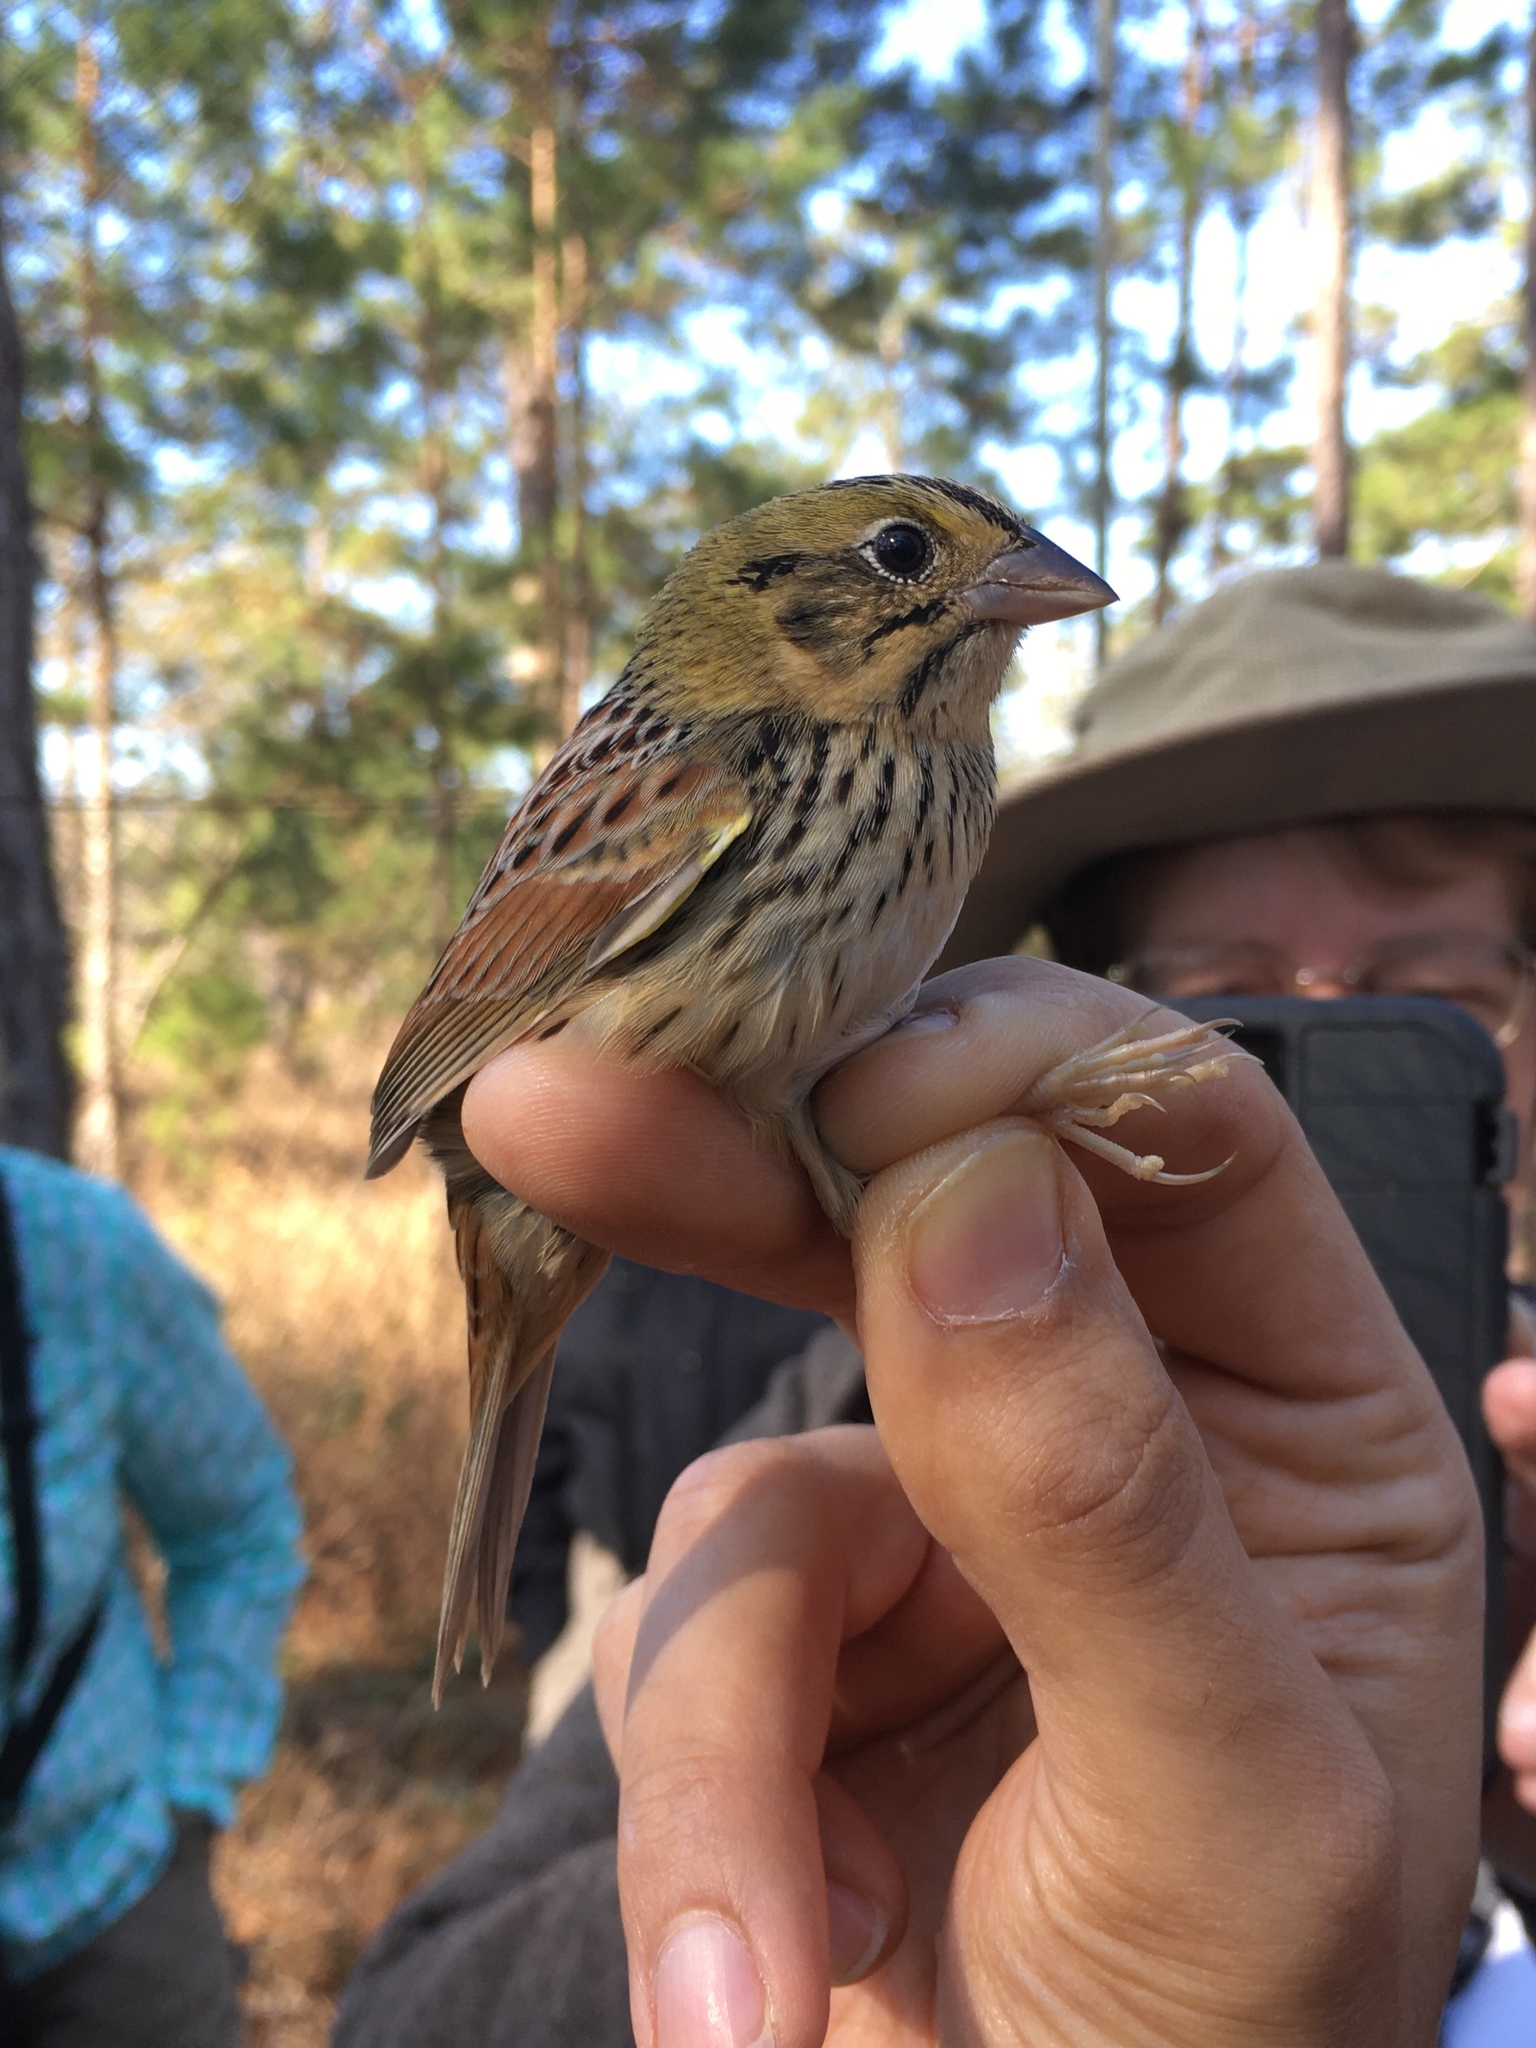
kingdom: Animalia
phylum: Chordata
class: Aves
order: Passeriformes
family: Passerellidae
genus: Centronyx
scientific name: Centronyx henslowii
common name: Henslow's sparrow
